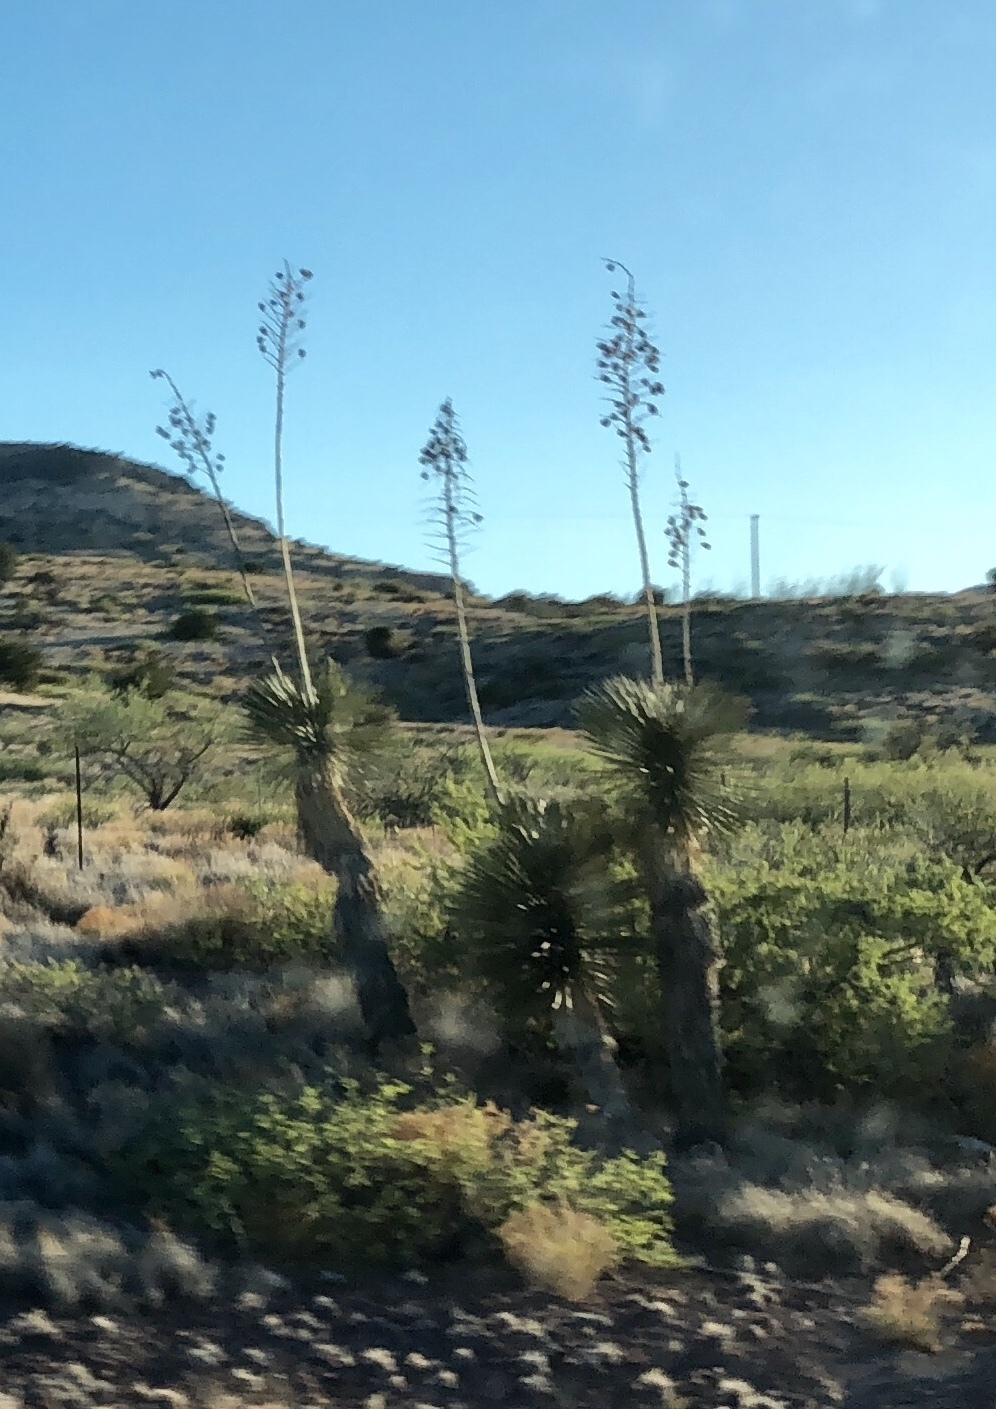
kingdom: Plantae
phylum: Tracheophyta
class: Liliopsida
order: Asparagales
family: Asparagaceae
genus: Yucca
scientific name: Yucca elata
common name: Palmella
